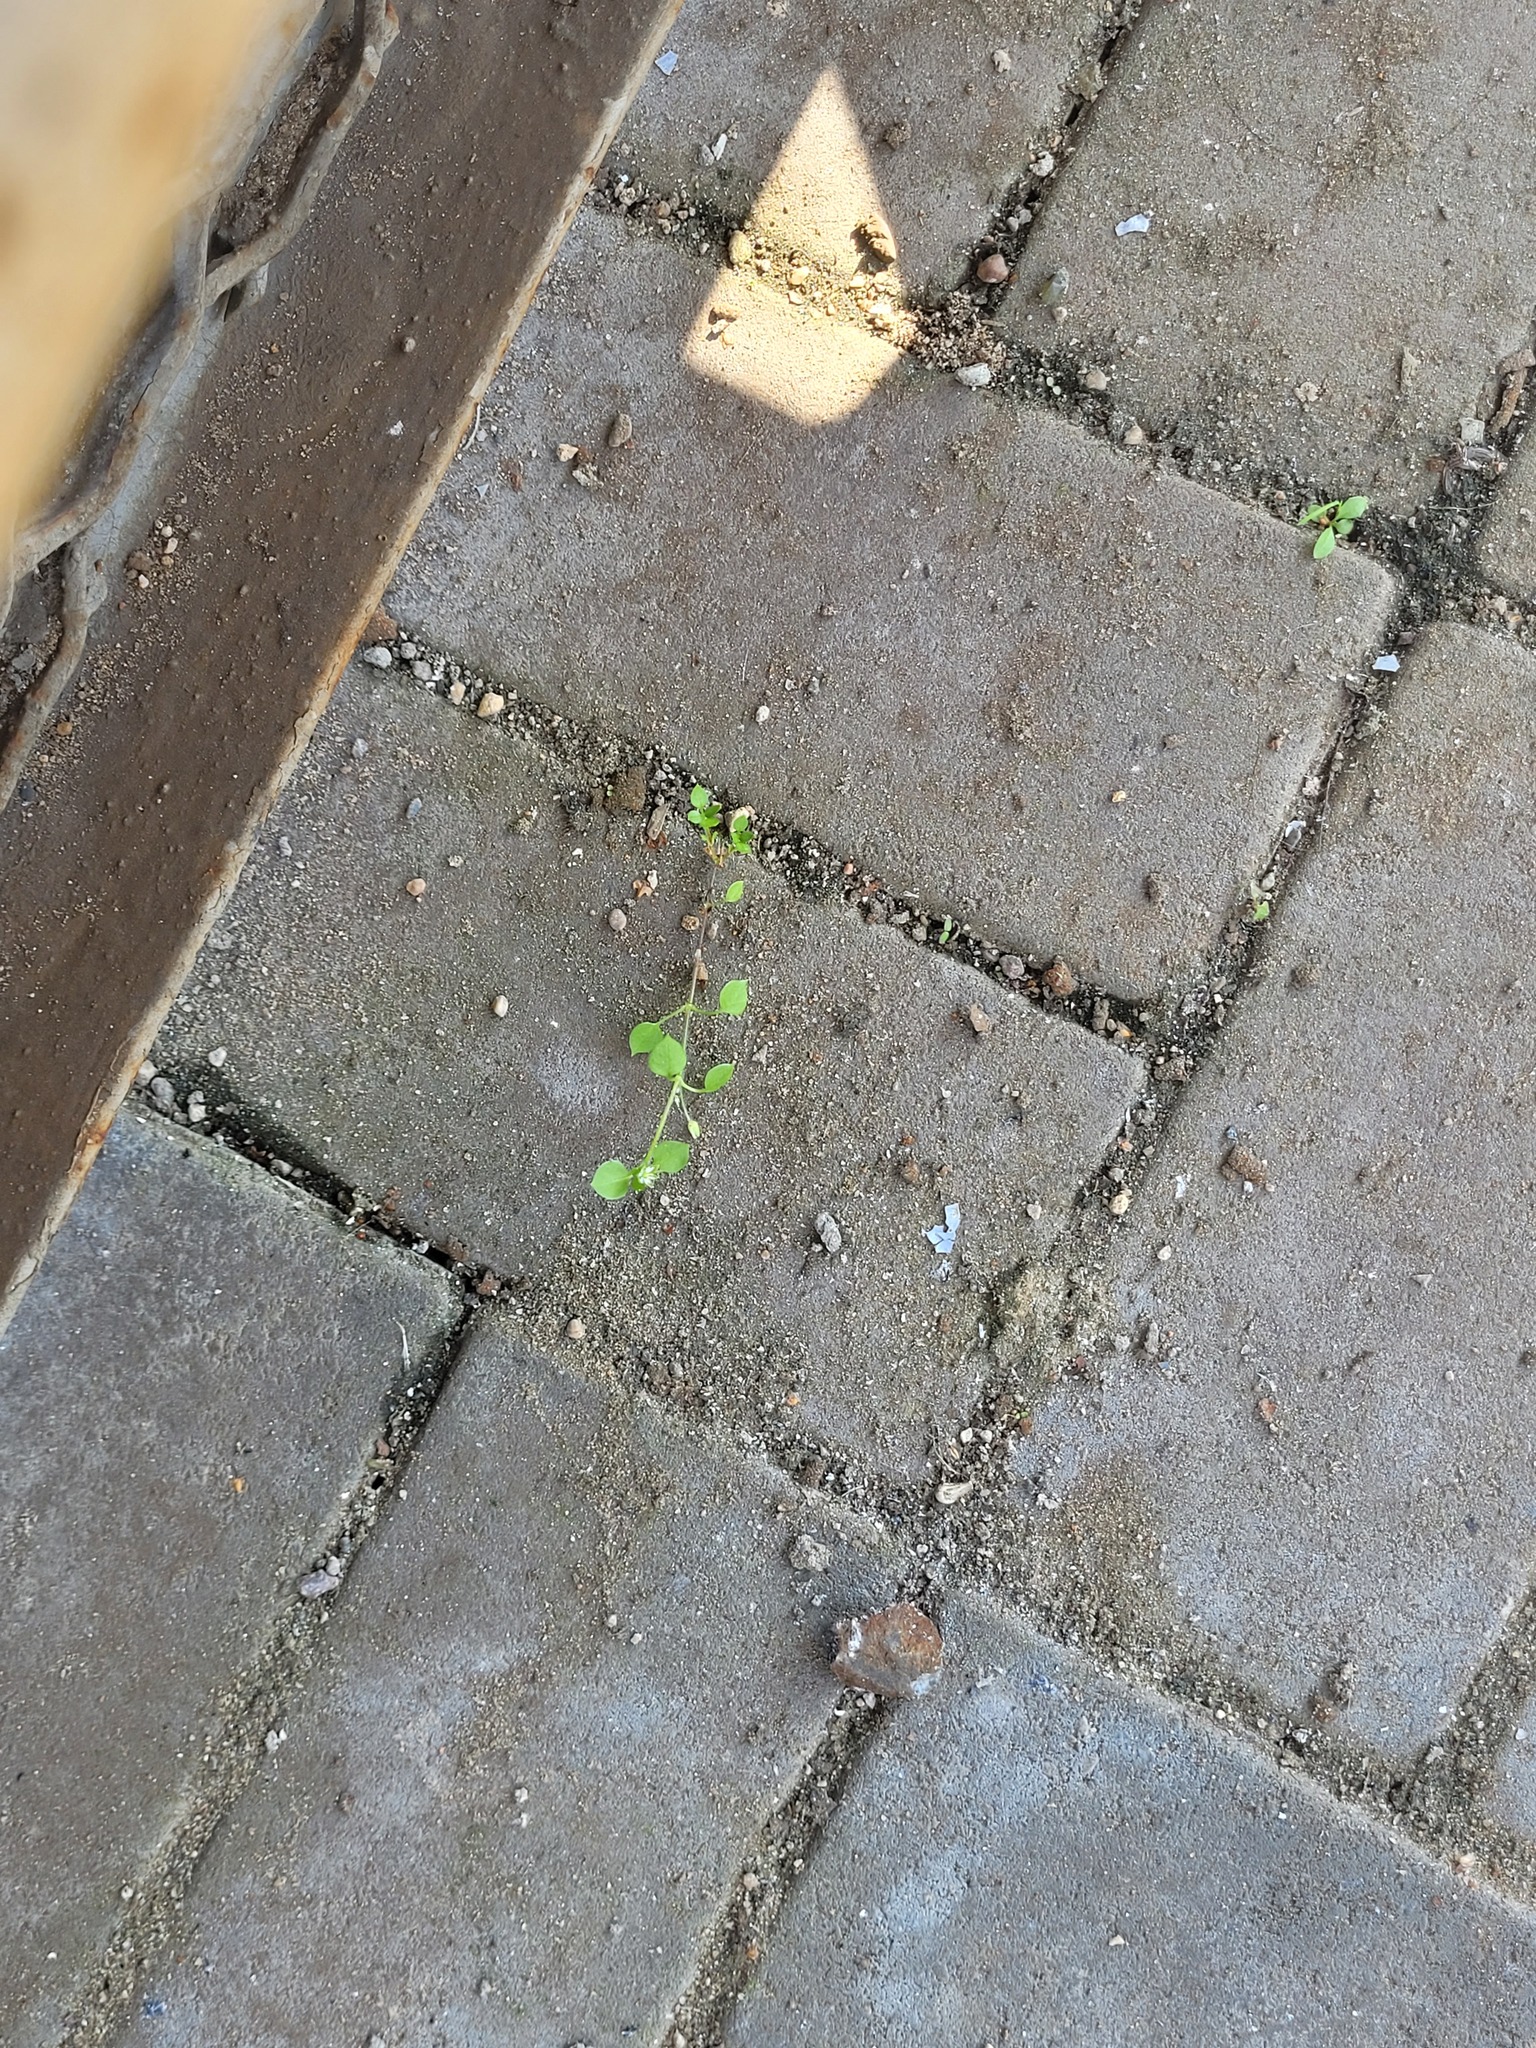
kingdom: Plantae
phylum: Tracheophyta
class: Magnoliopsida
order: Caryophyllales
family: Caryophyllaceae
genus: Stellaria
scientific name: Stellaria media
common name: Common chickweed
